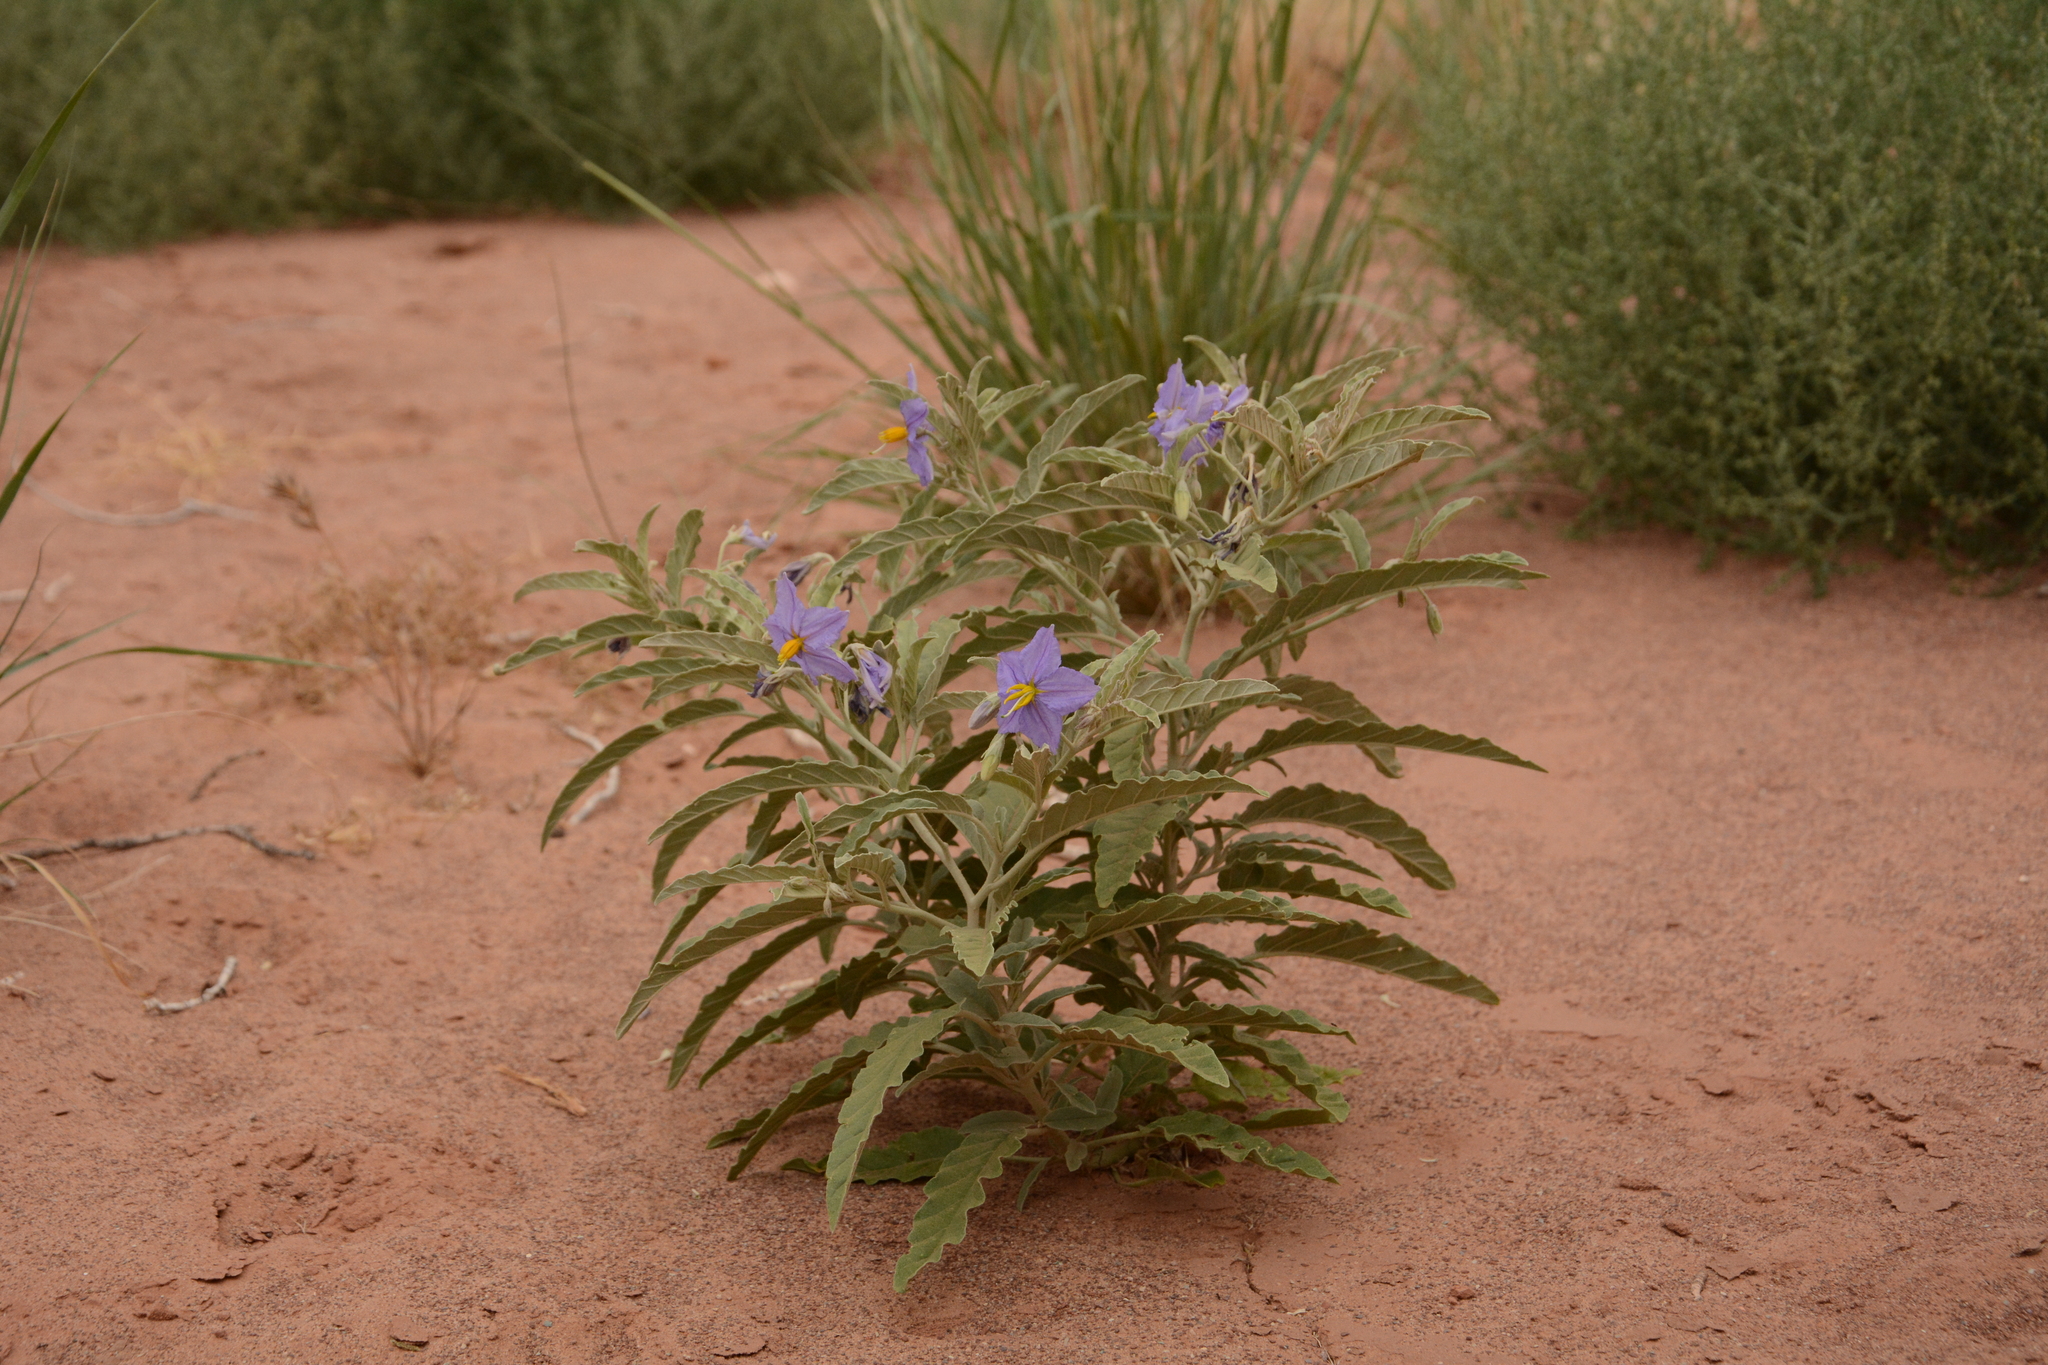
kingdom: Plantae
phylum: Tracheophyta
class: Magnoliopsida
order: Solanales
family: Solanaceae
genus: Solanum
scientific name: Solanum elaeagnifolium
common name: Silverleaf nightshade
